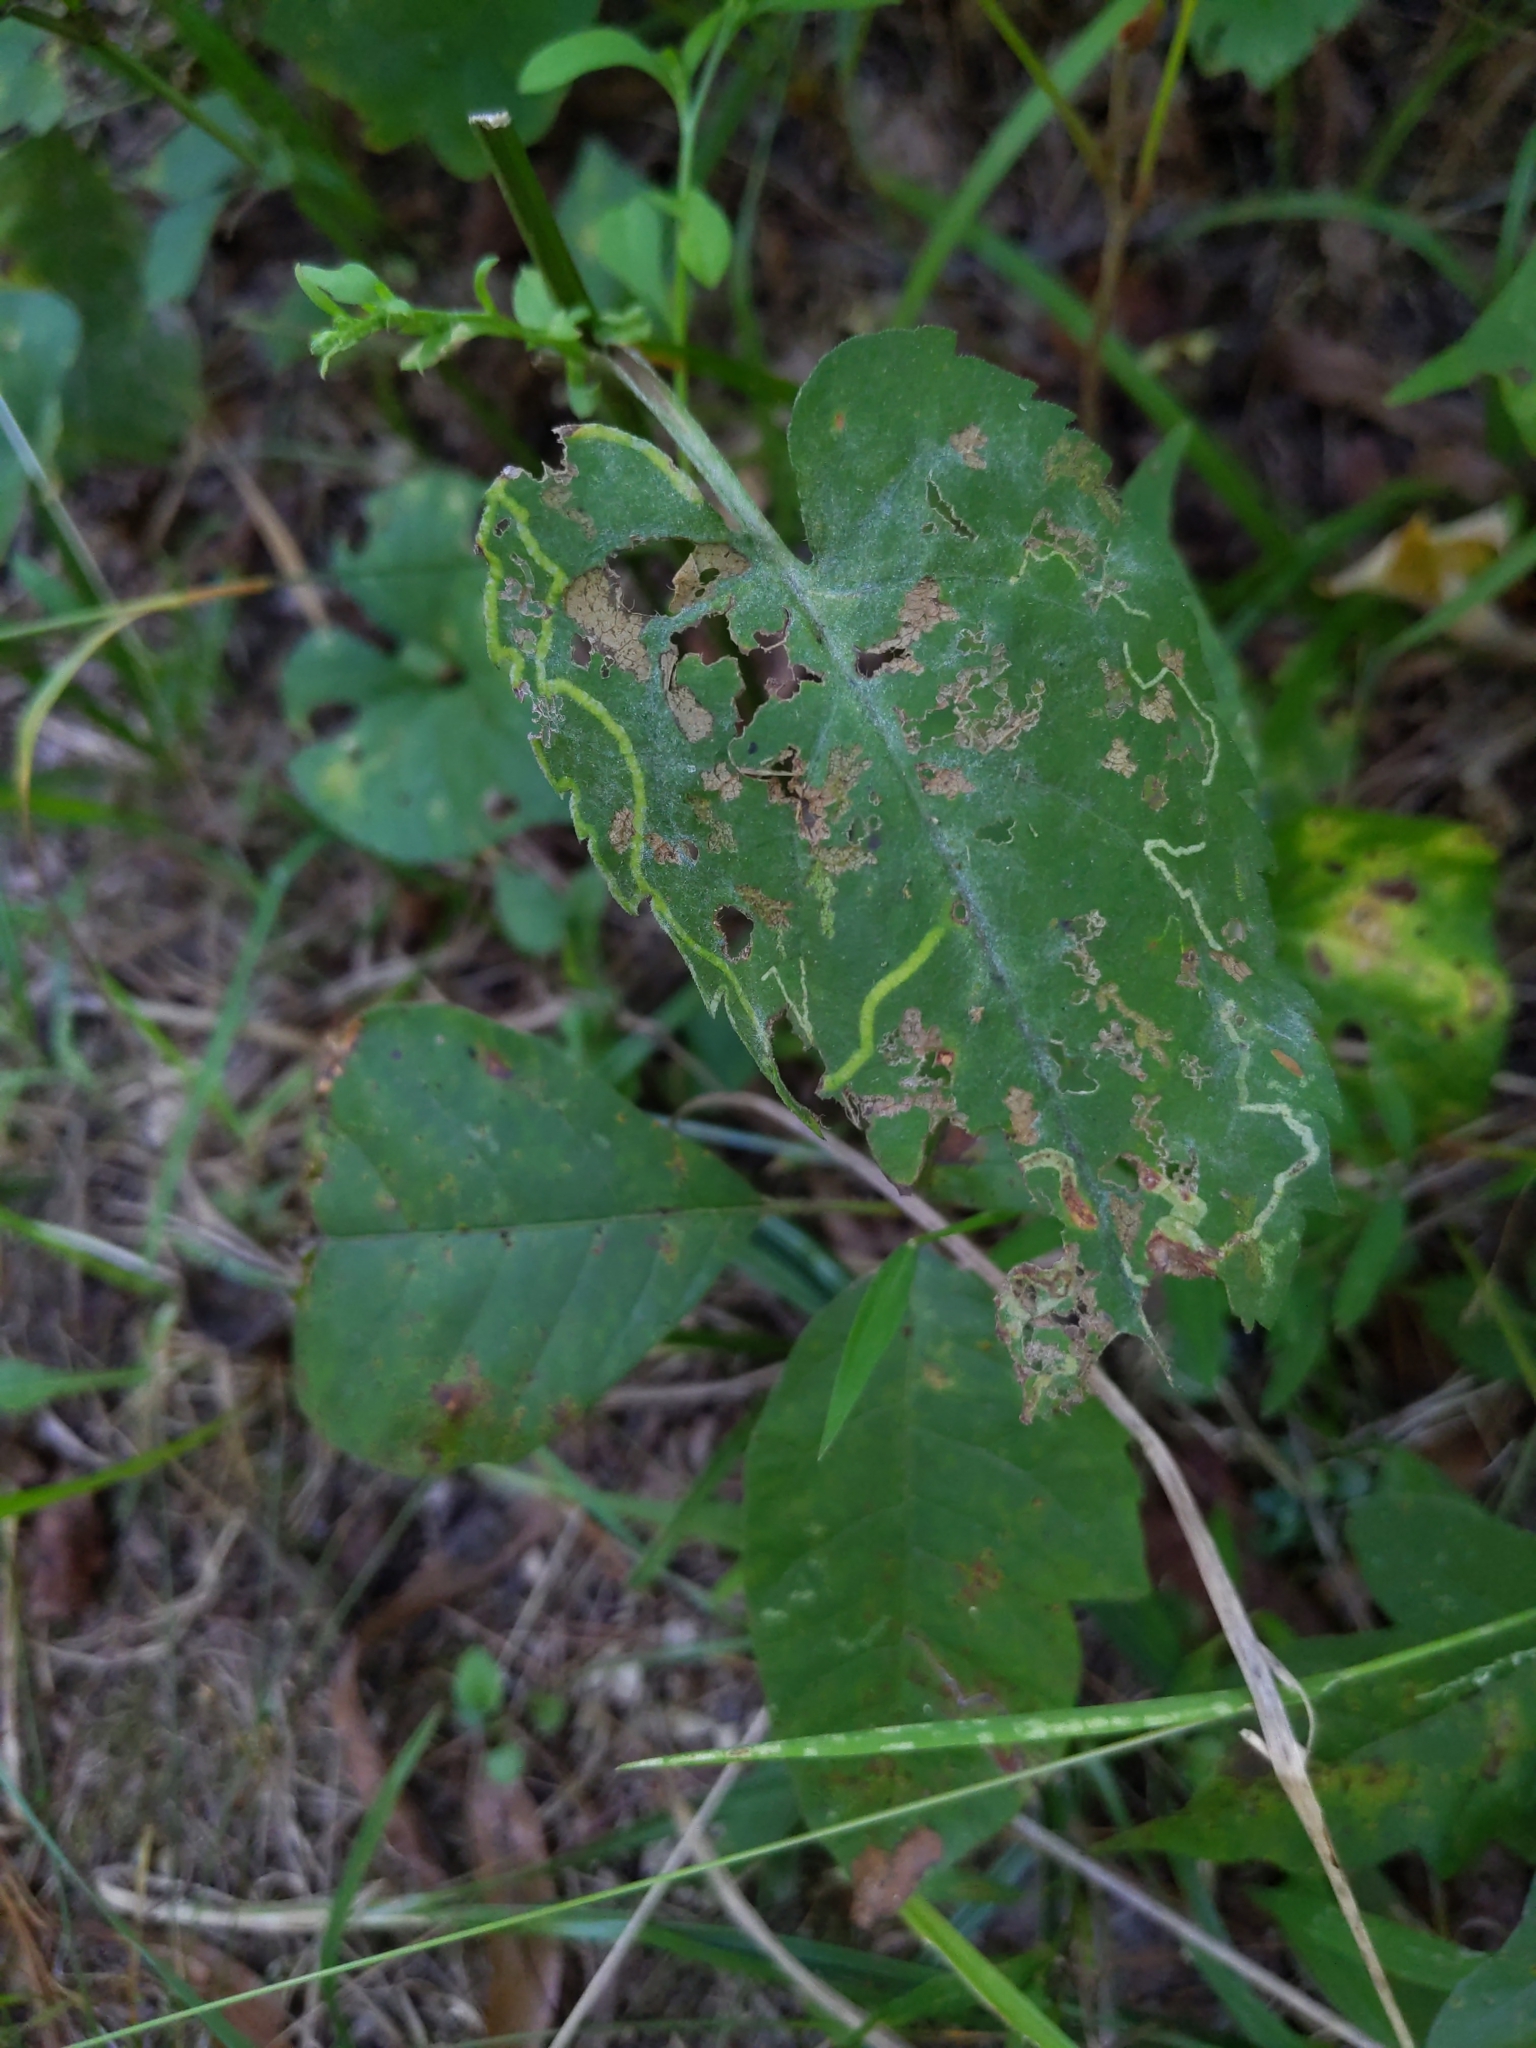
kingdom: Animalia
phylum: Arthropoda
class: Insecta
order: Diptera
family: Agromyzidae
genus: Ophiomyia
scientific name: Ophiomyia asterovora
